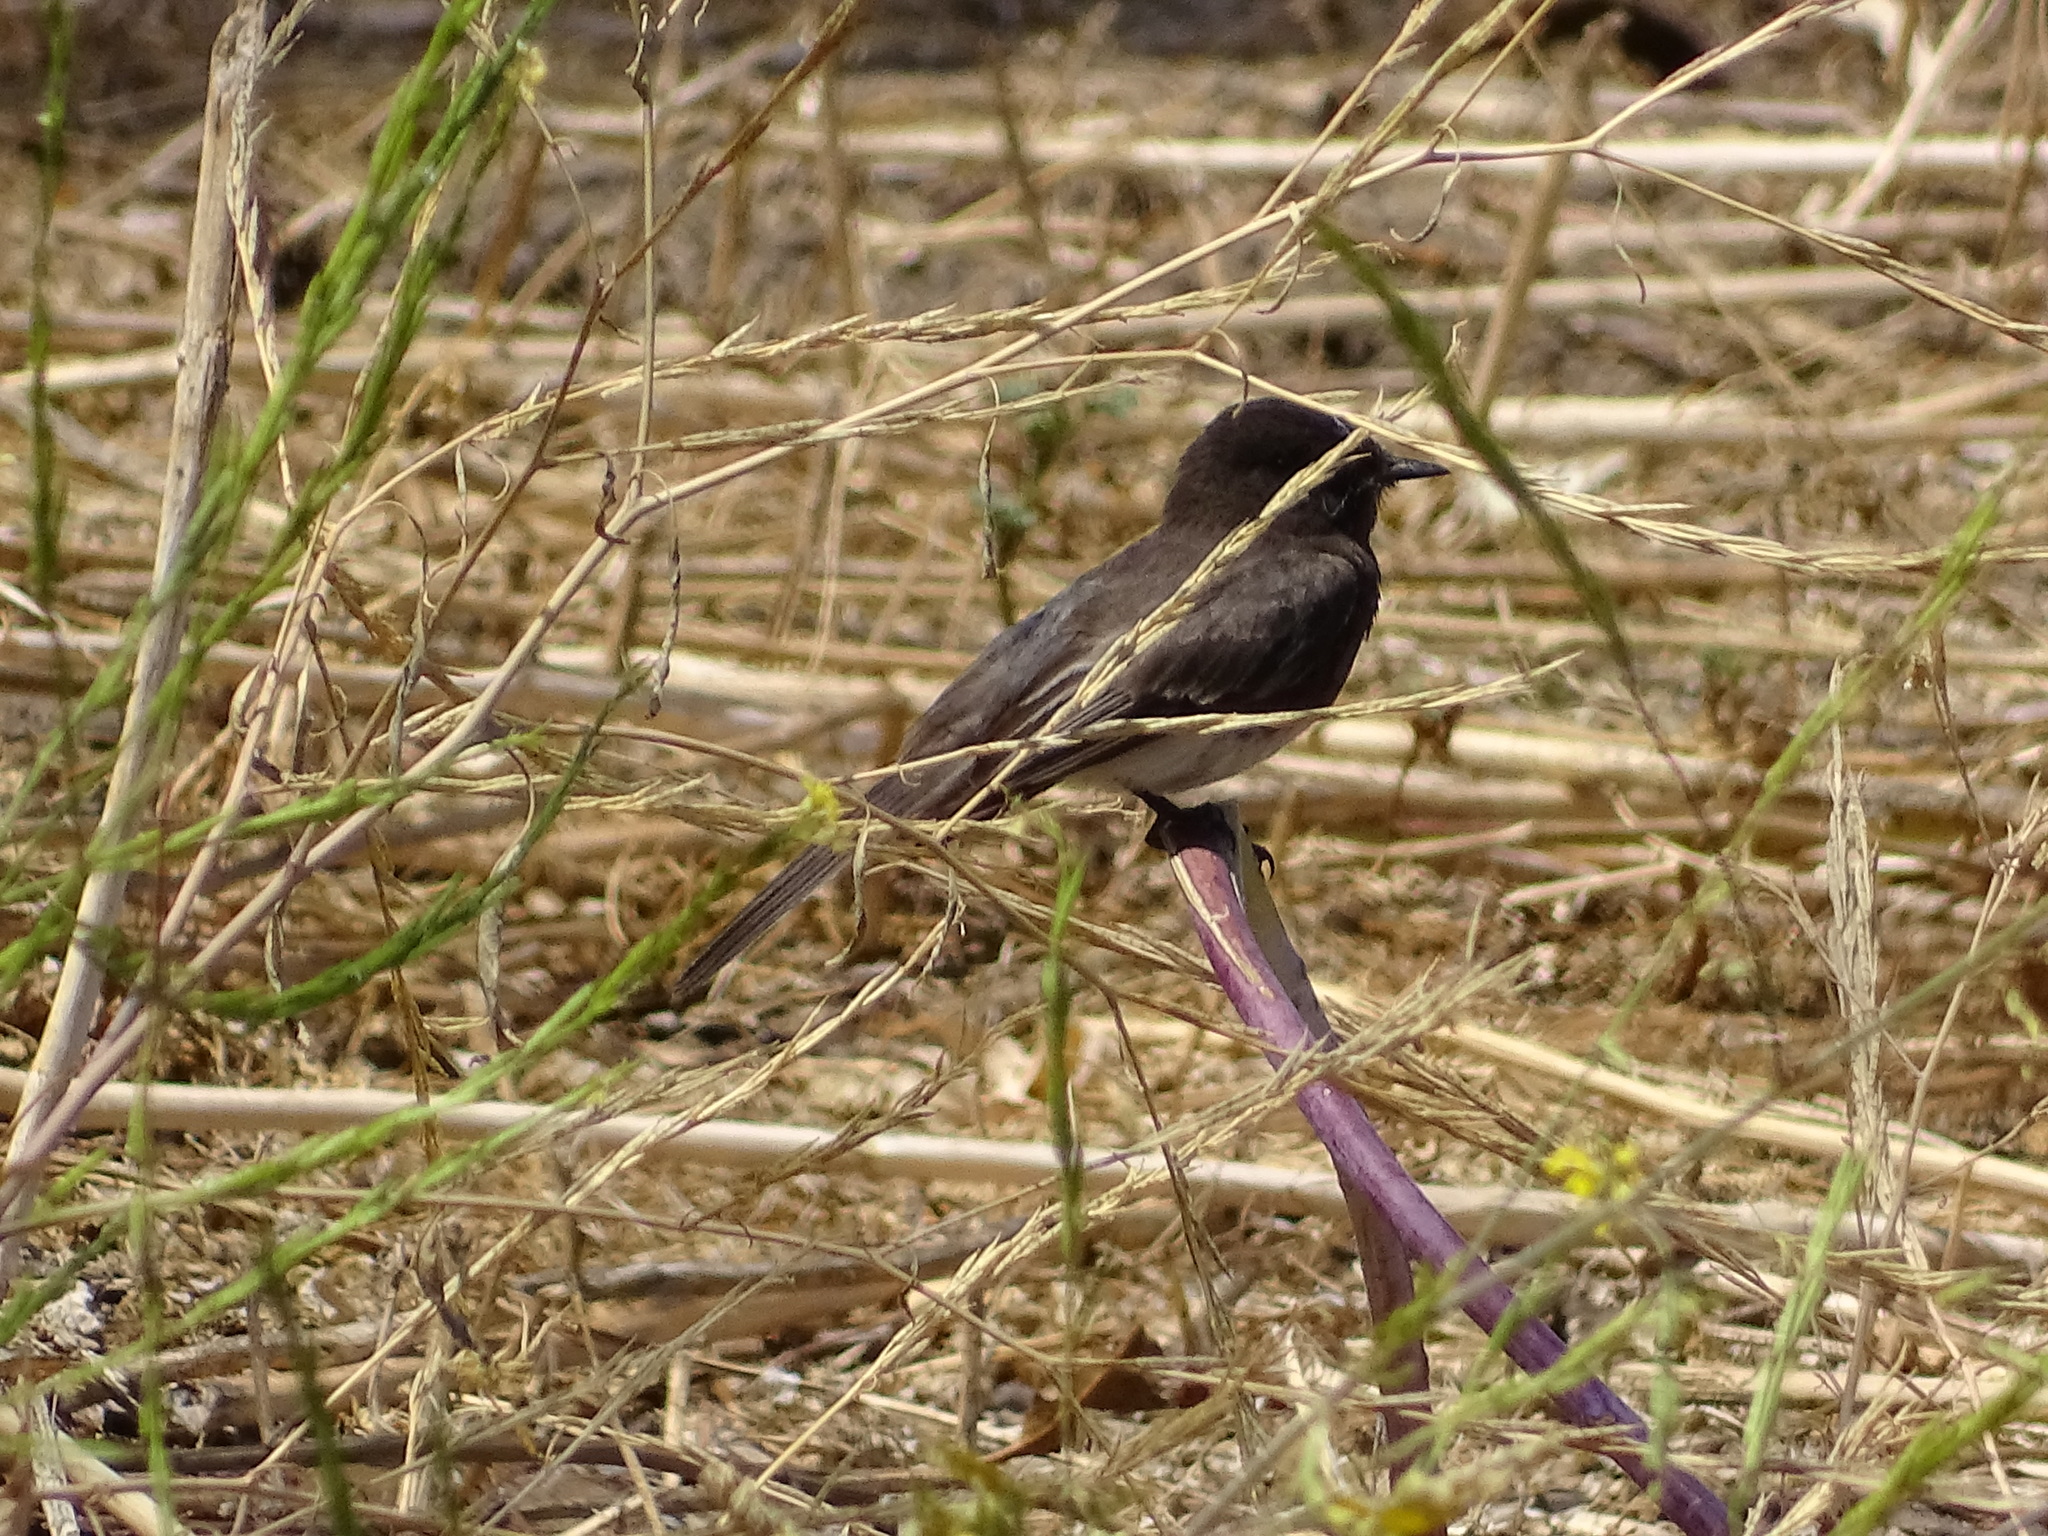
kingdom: Animalia
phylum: Chordata
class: Aves
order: Passeriformes
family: Tyrannidae
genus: Sayornis
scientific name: Sayornis nigricans
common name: Black phoebe
